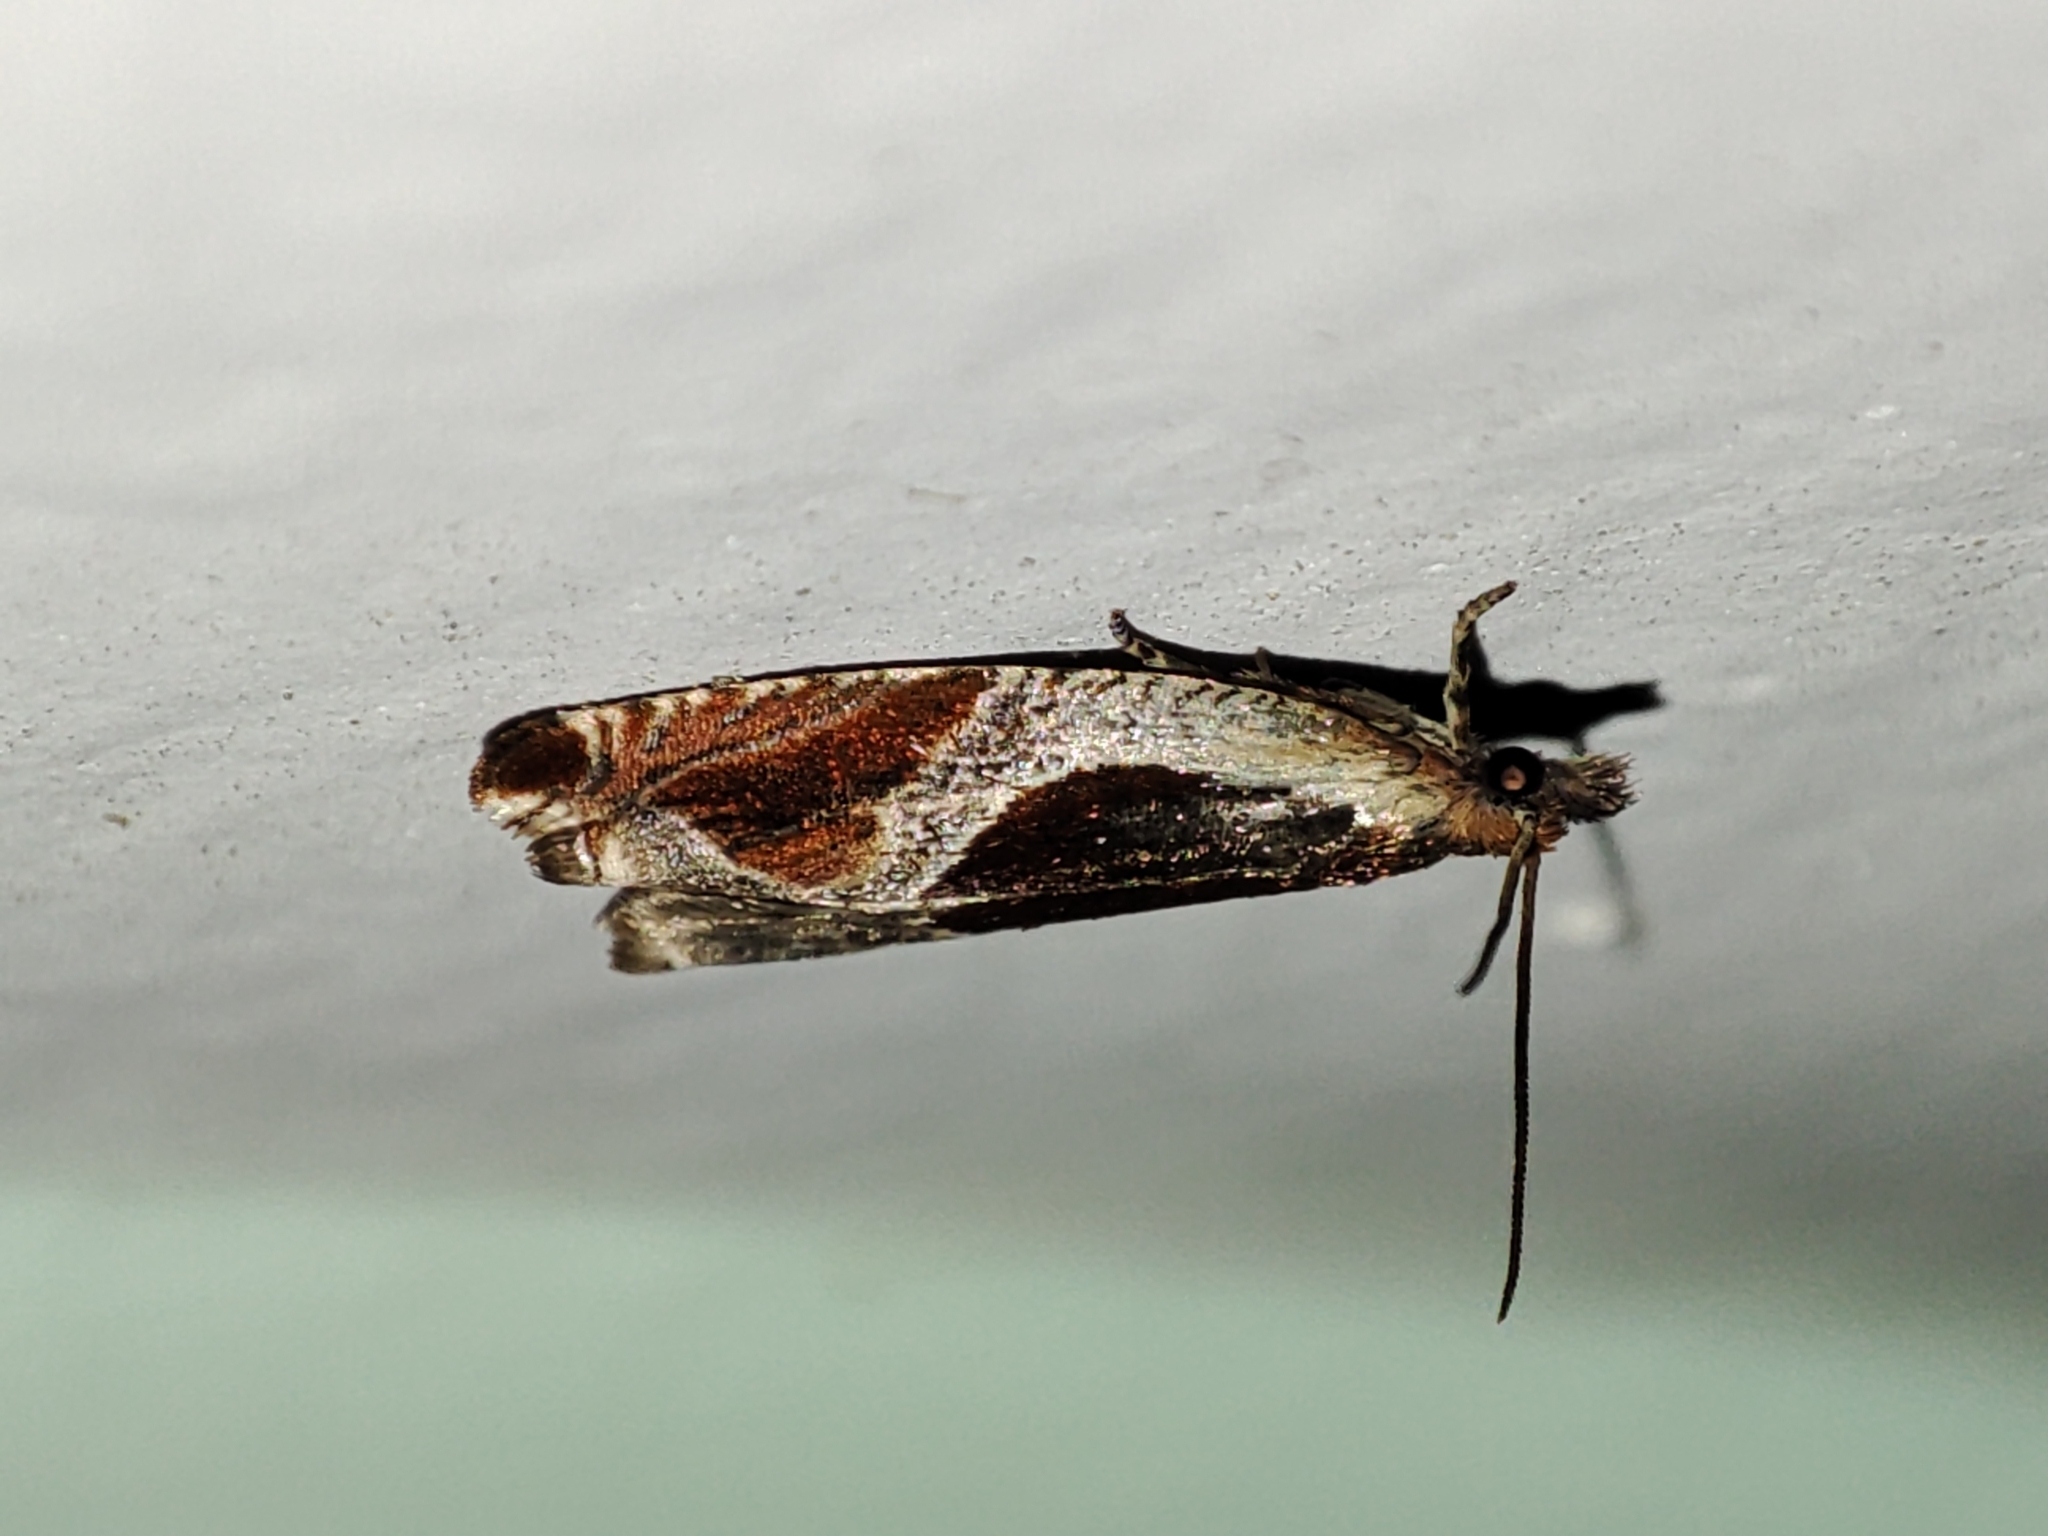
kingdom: Animalia
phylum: Arthropoda
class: Insecta
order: Lepidoptera
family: Tortricidae
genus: Ancylis
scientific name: Ancylis unculana
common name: Buckthorn roller
